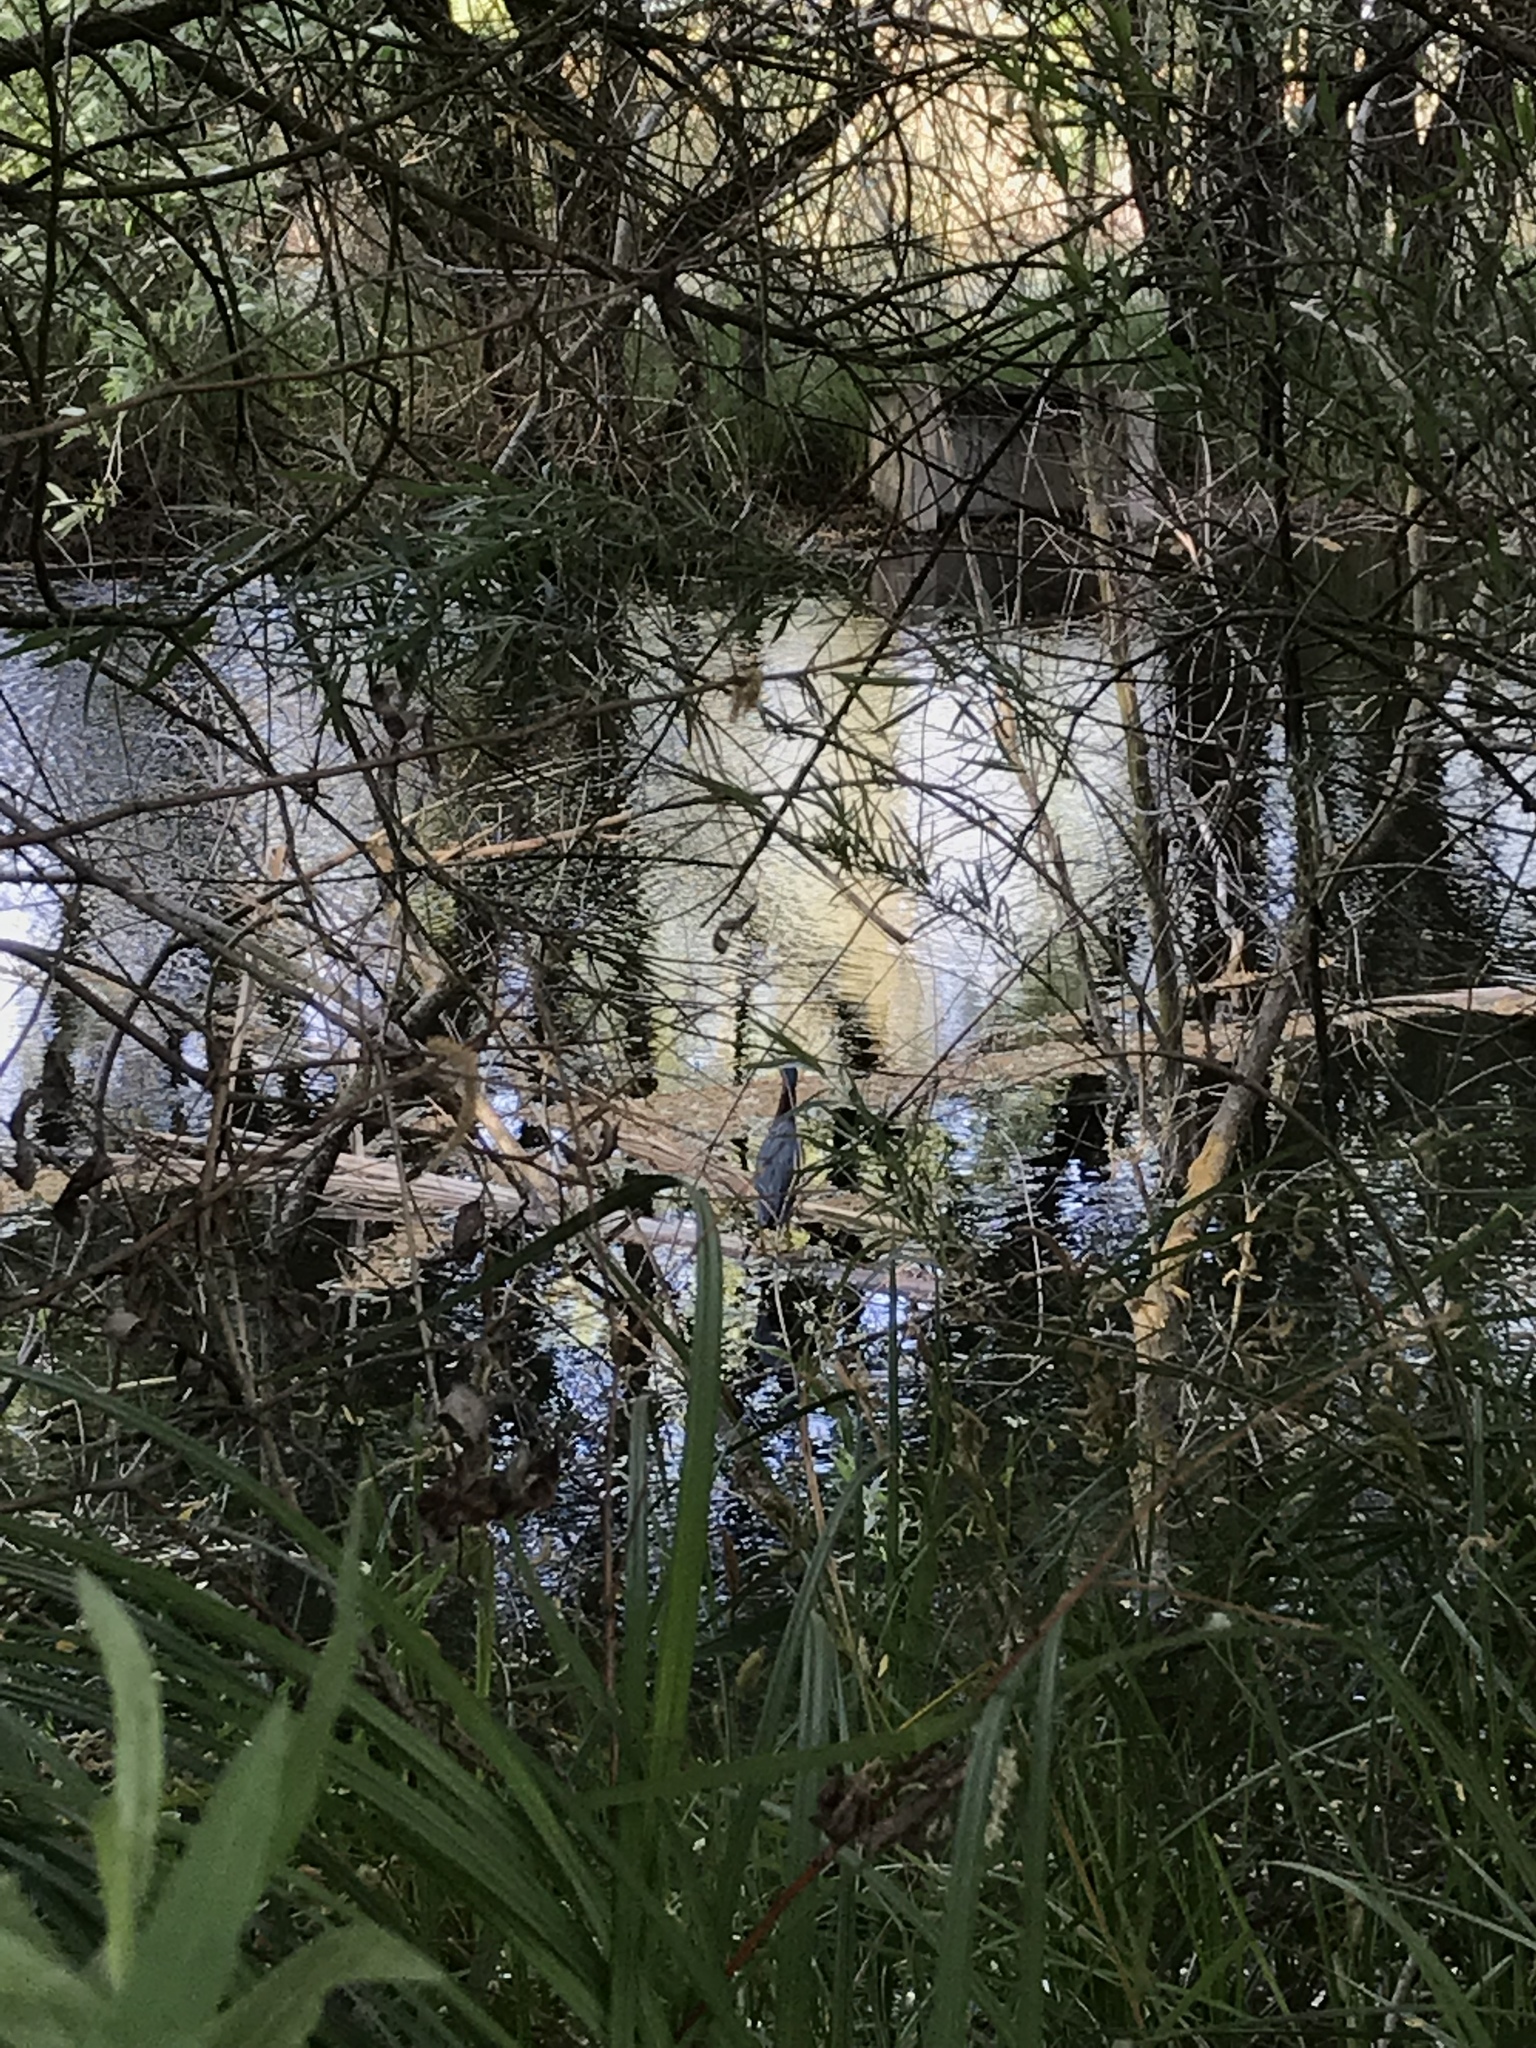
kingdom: Animalia
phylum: Chordata
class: Aves
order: Pelecaniformes
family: Ardeidae
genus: Butorides
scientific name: Butorides virescens
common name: Green heron
